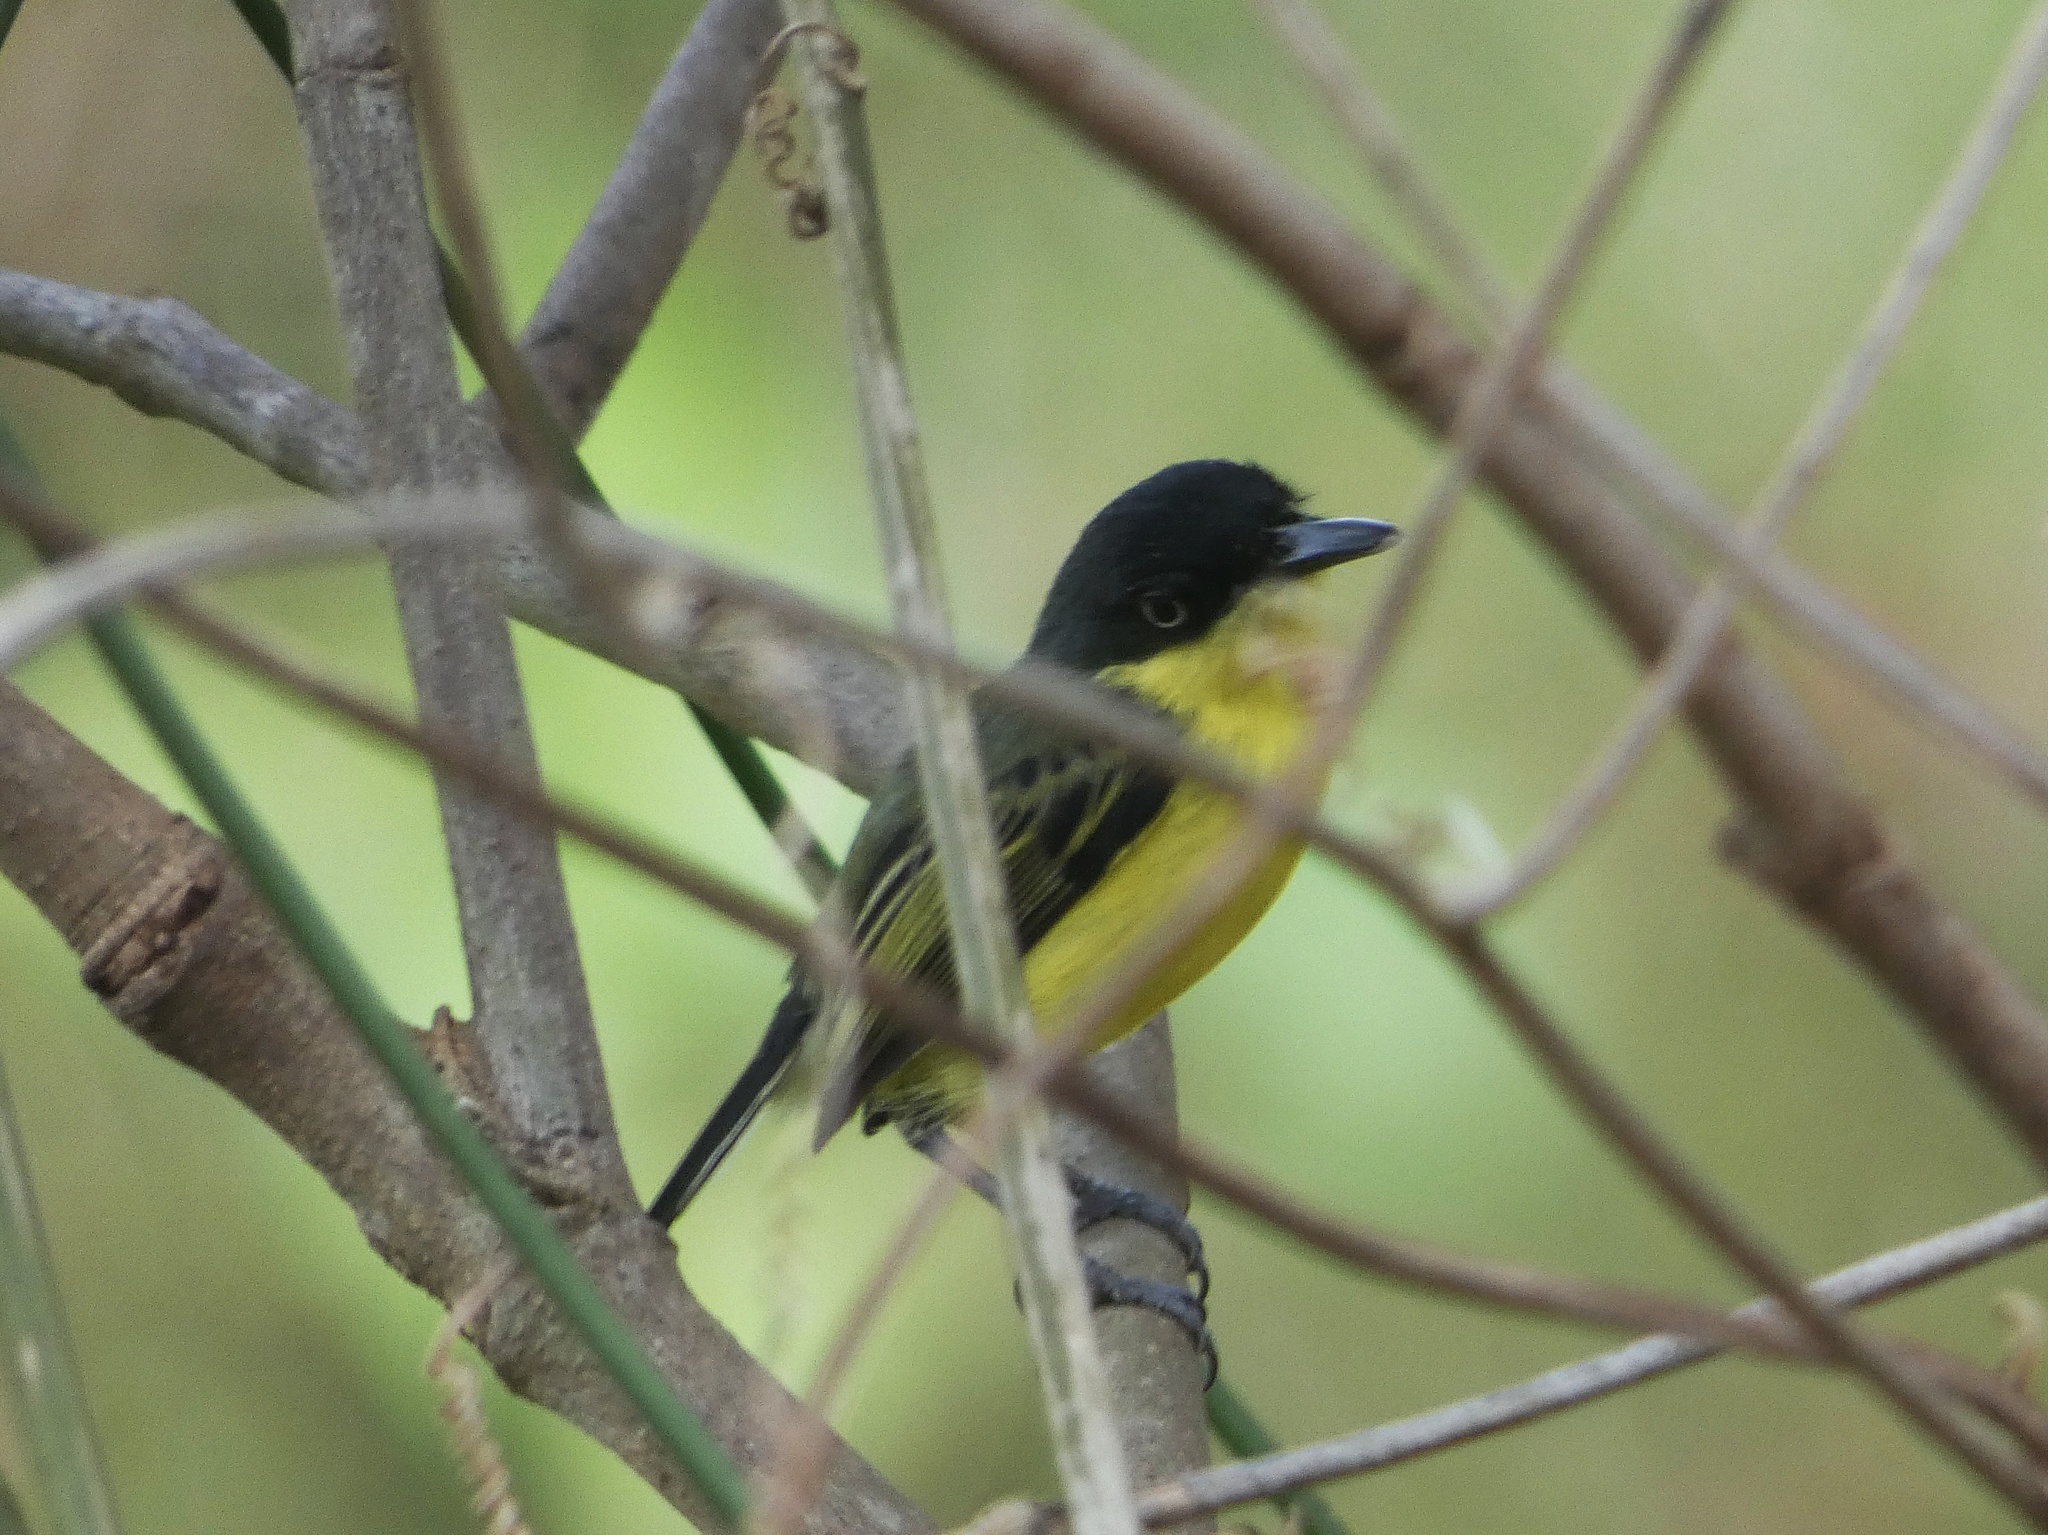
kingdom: Animalia
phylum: Chordata
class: Aves
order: Passeriformes
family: Tyrannidae
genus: Todirostrum
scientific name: Todirostrum cinereum
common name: Common tody-flycatcher
